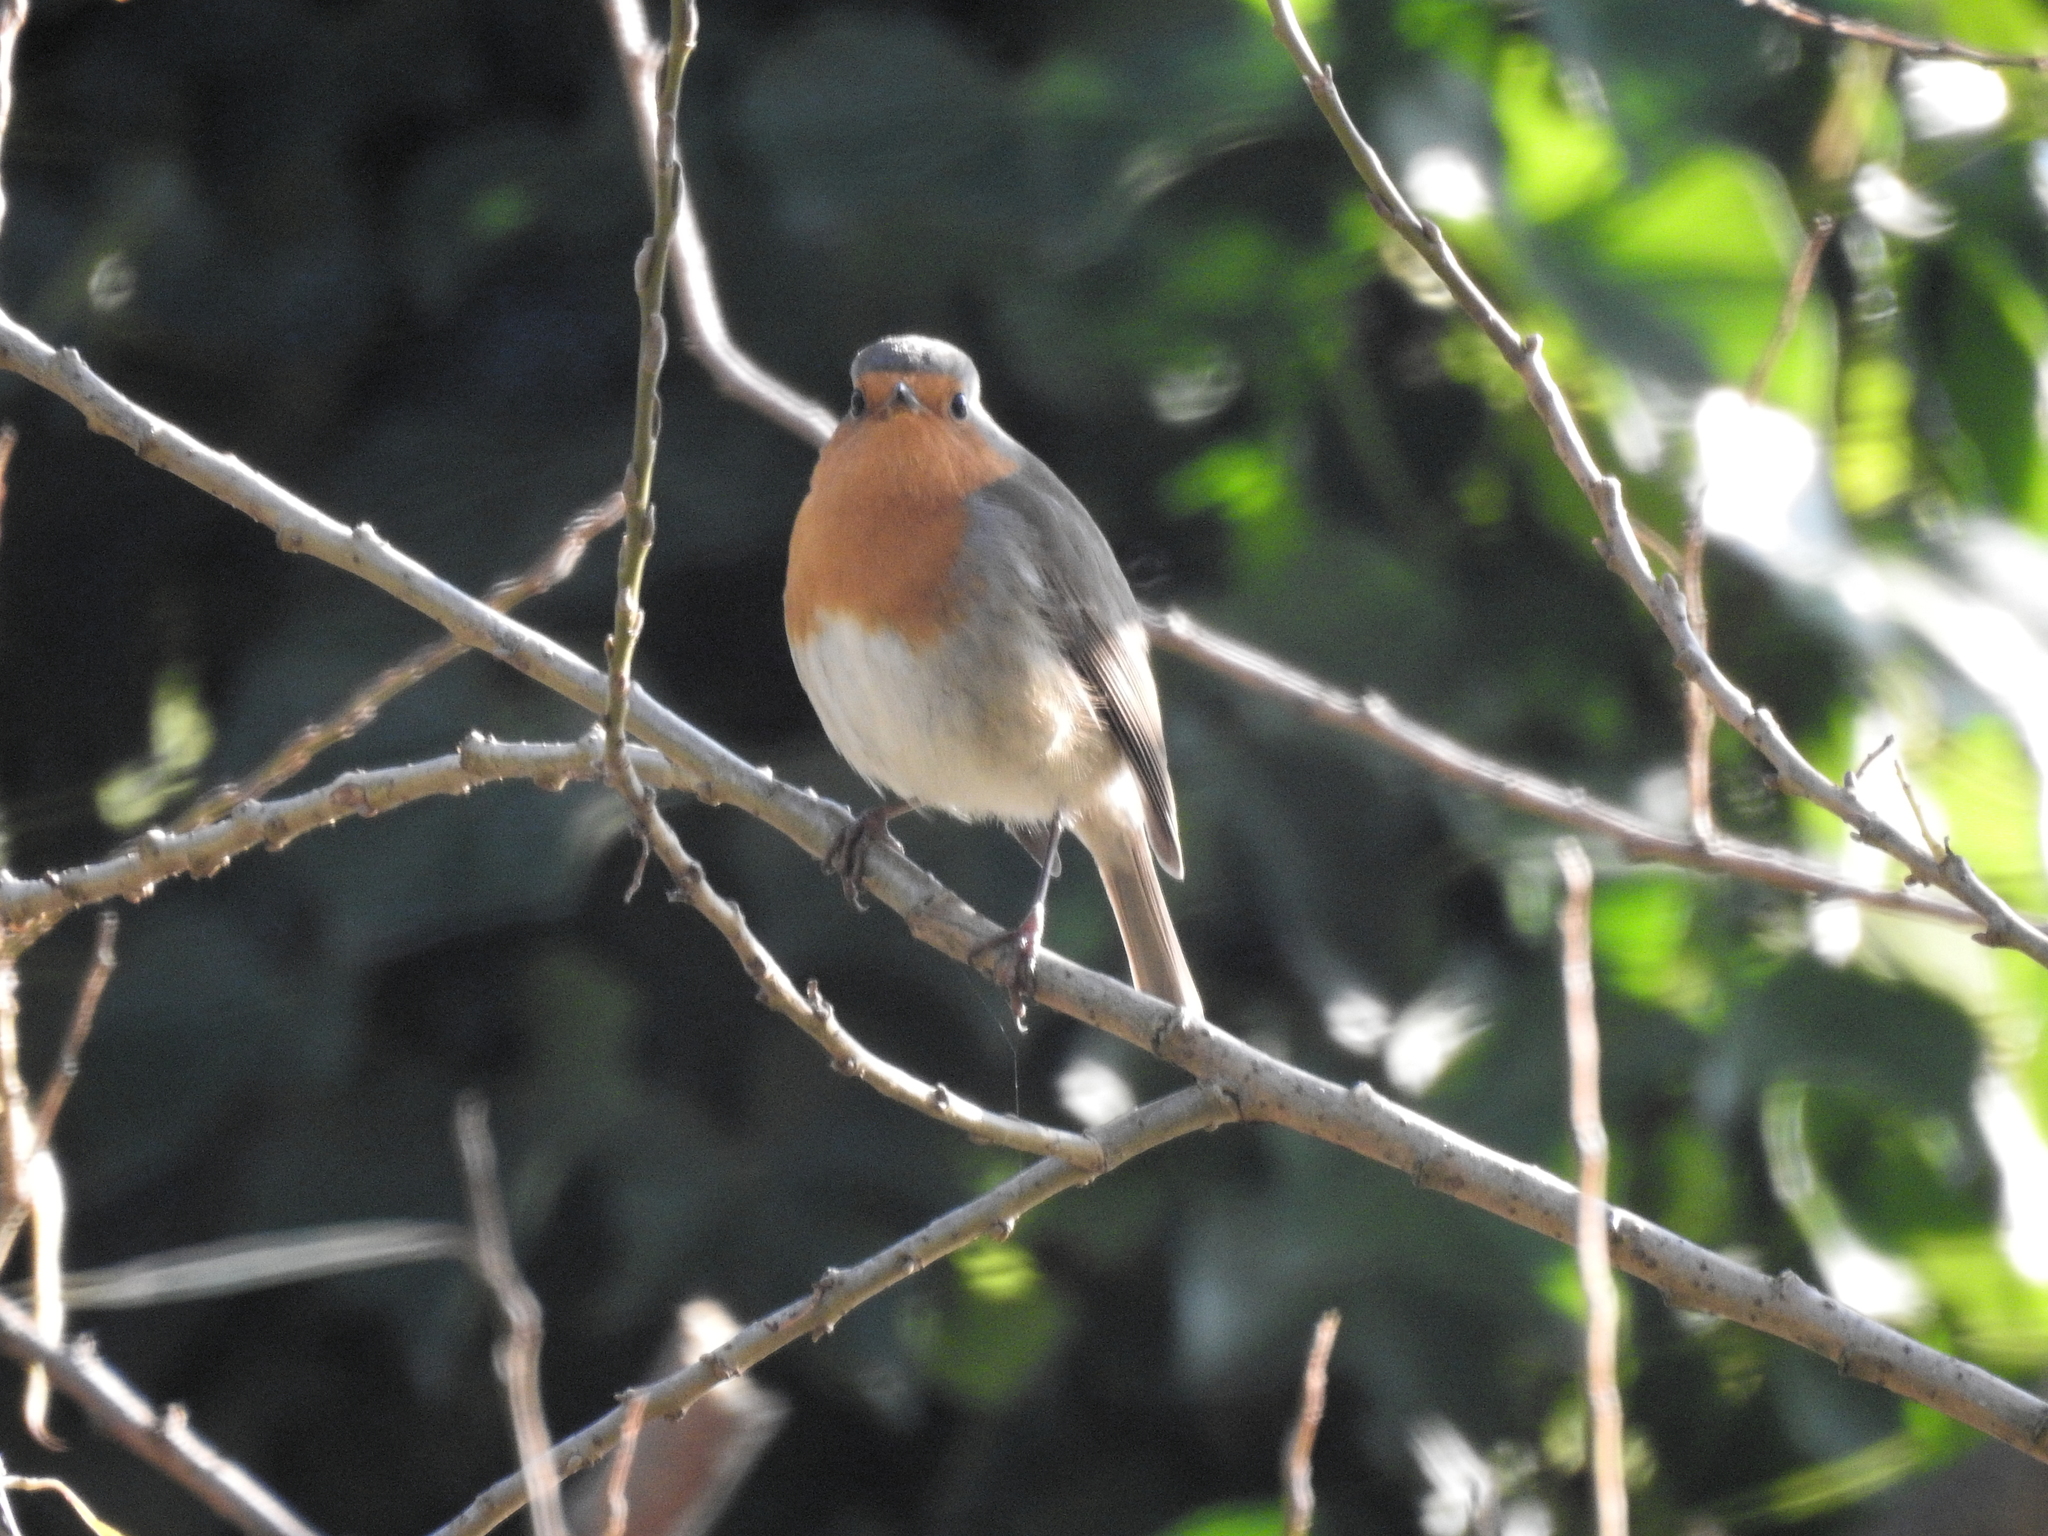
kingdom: Animalia
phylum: Chordata
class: Aves
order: Passeriformes
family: Muscicapidae
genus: Erithacus
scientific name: Erithacus rubecula
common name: European robin
